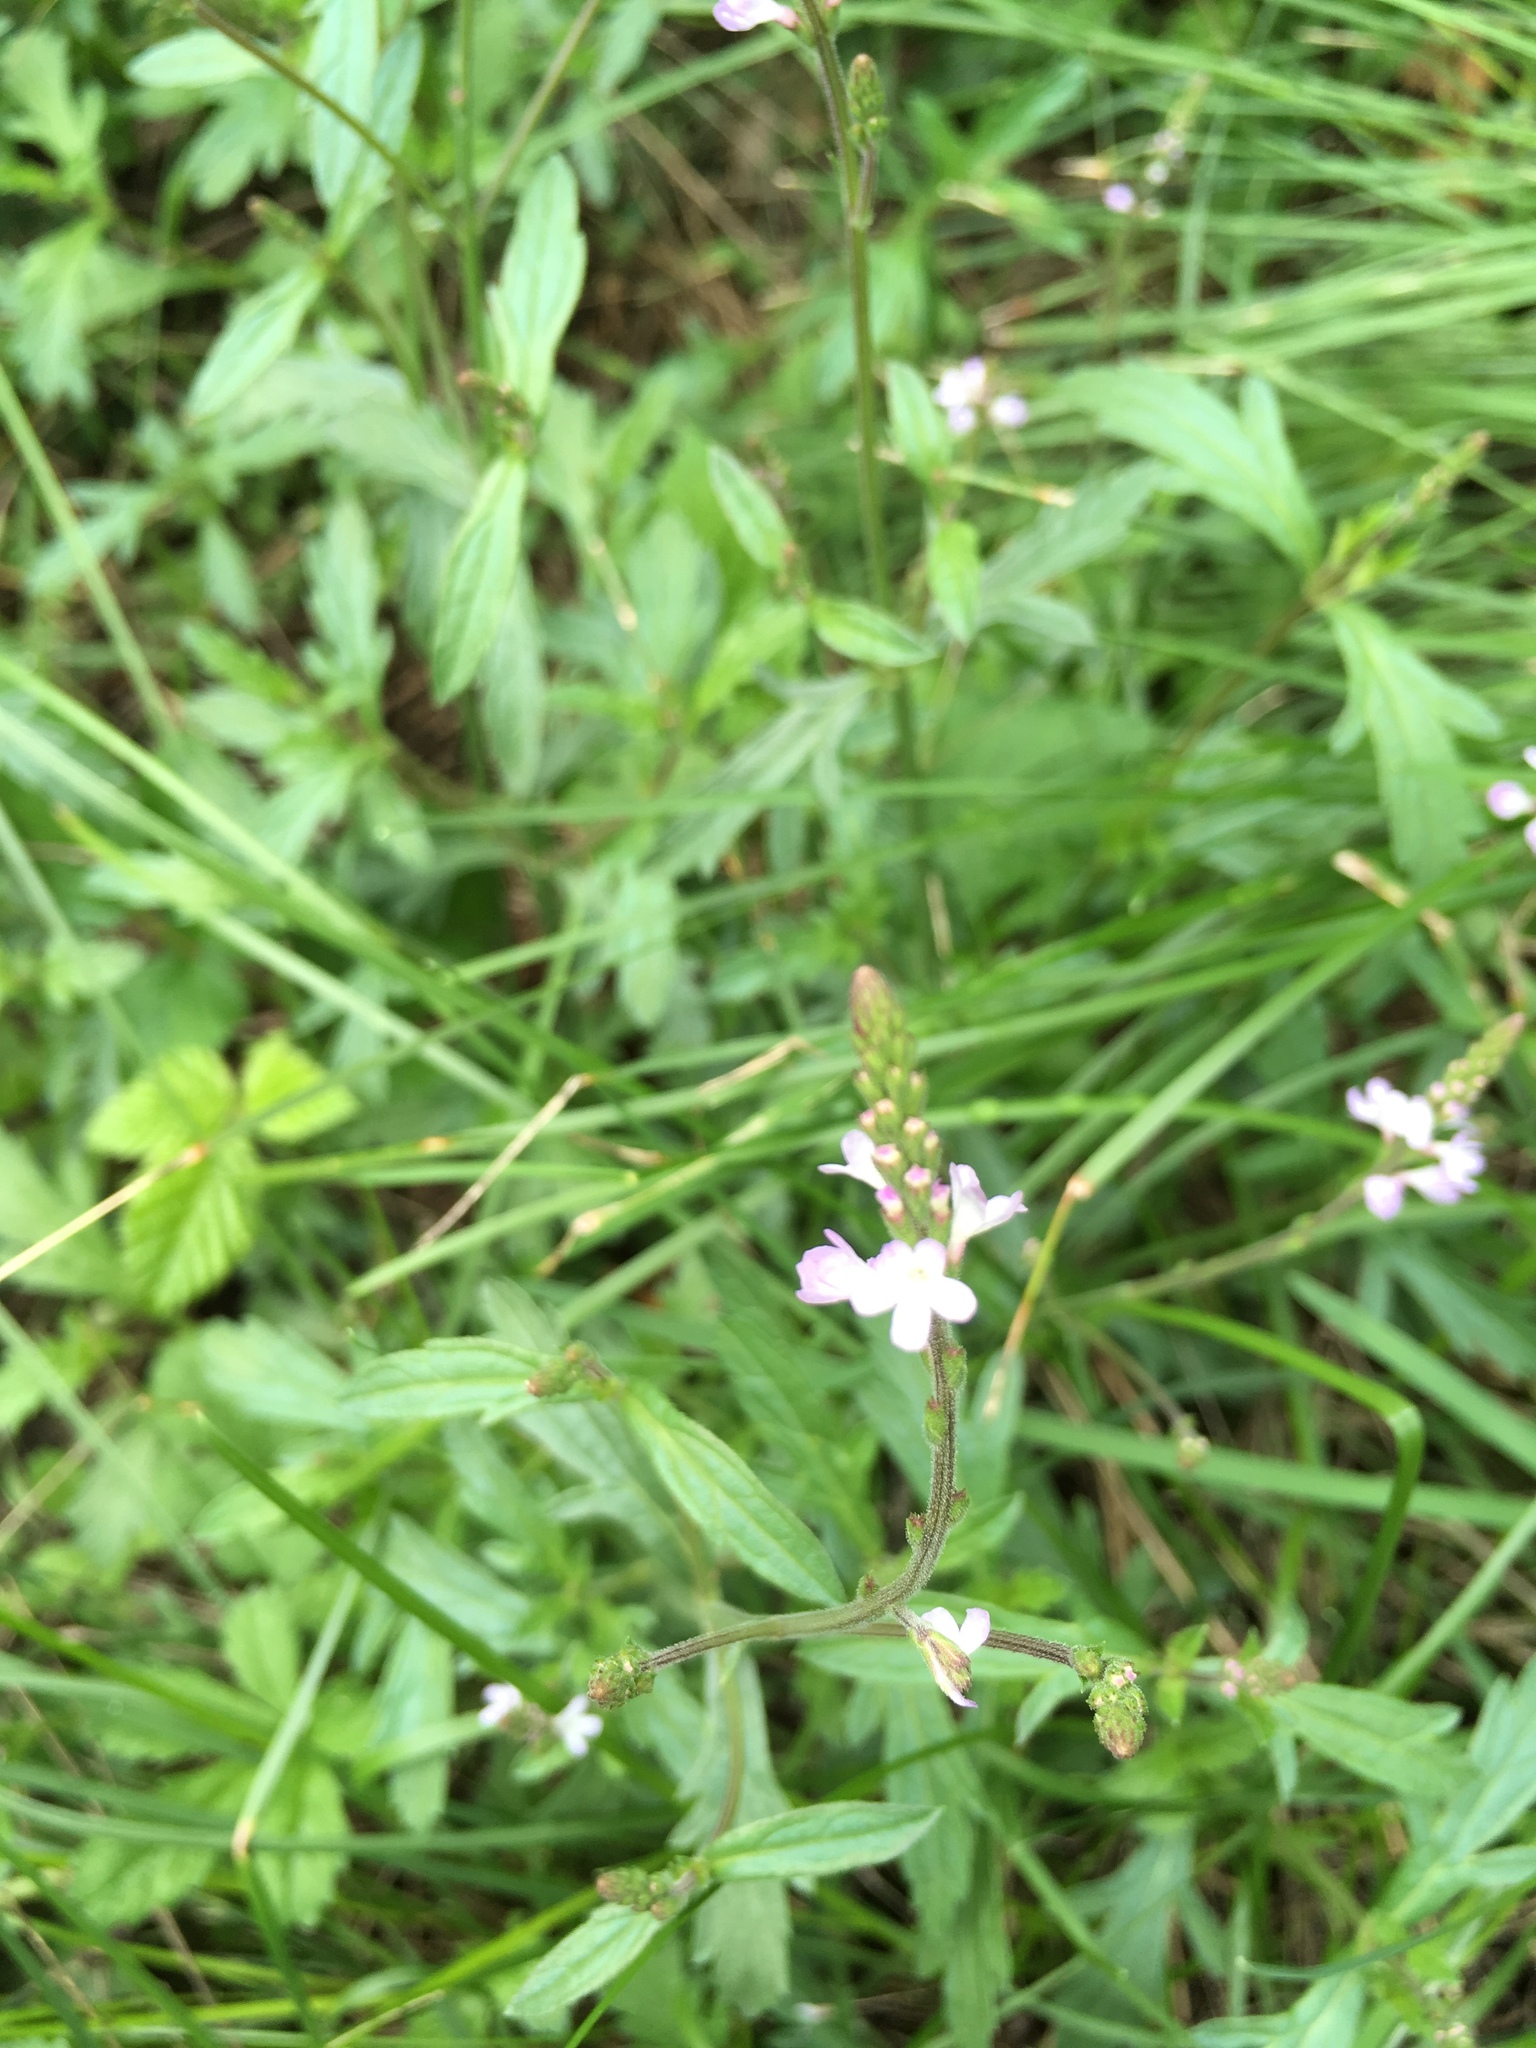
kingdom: Plantae
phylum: Tracheophyta
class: Magnoliopsida
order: Lamiales
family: Verbenaceae
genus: Verbena
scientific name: Verbena officinalis
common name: Vervain
